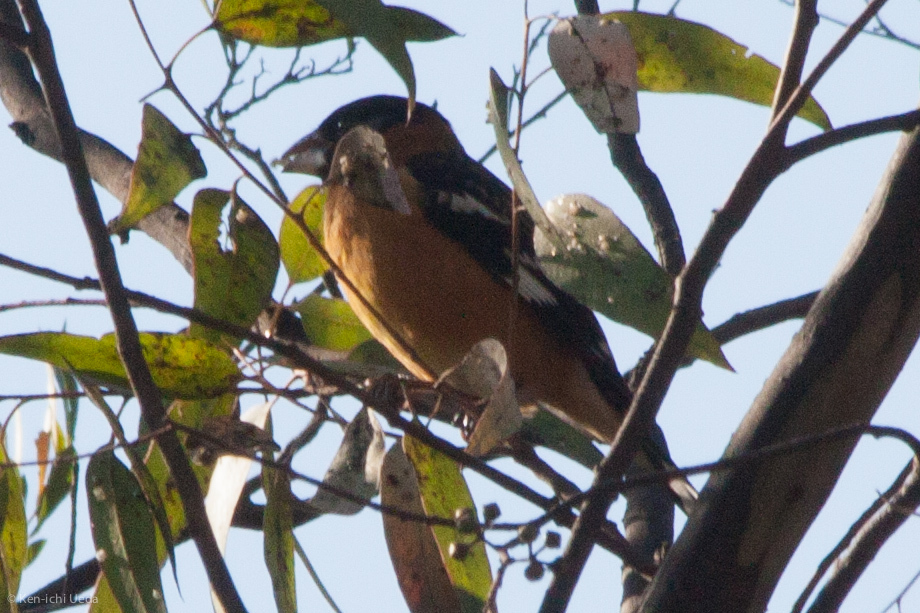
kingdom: Animalia
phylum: Chordata
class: Aves
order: Passeriformes
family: Cardinalidae
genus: Pheucticus
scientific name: Pheucticus melanocephalus
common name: Black-headed grosbeak
